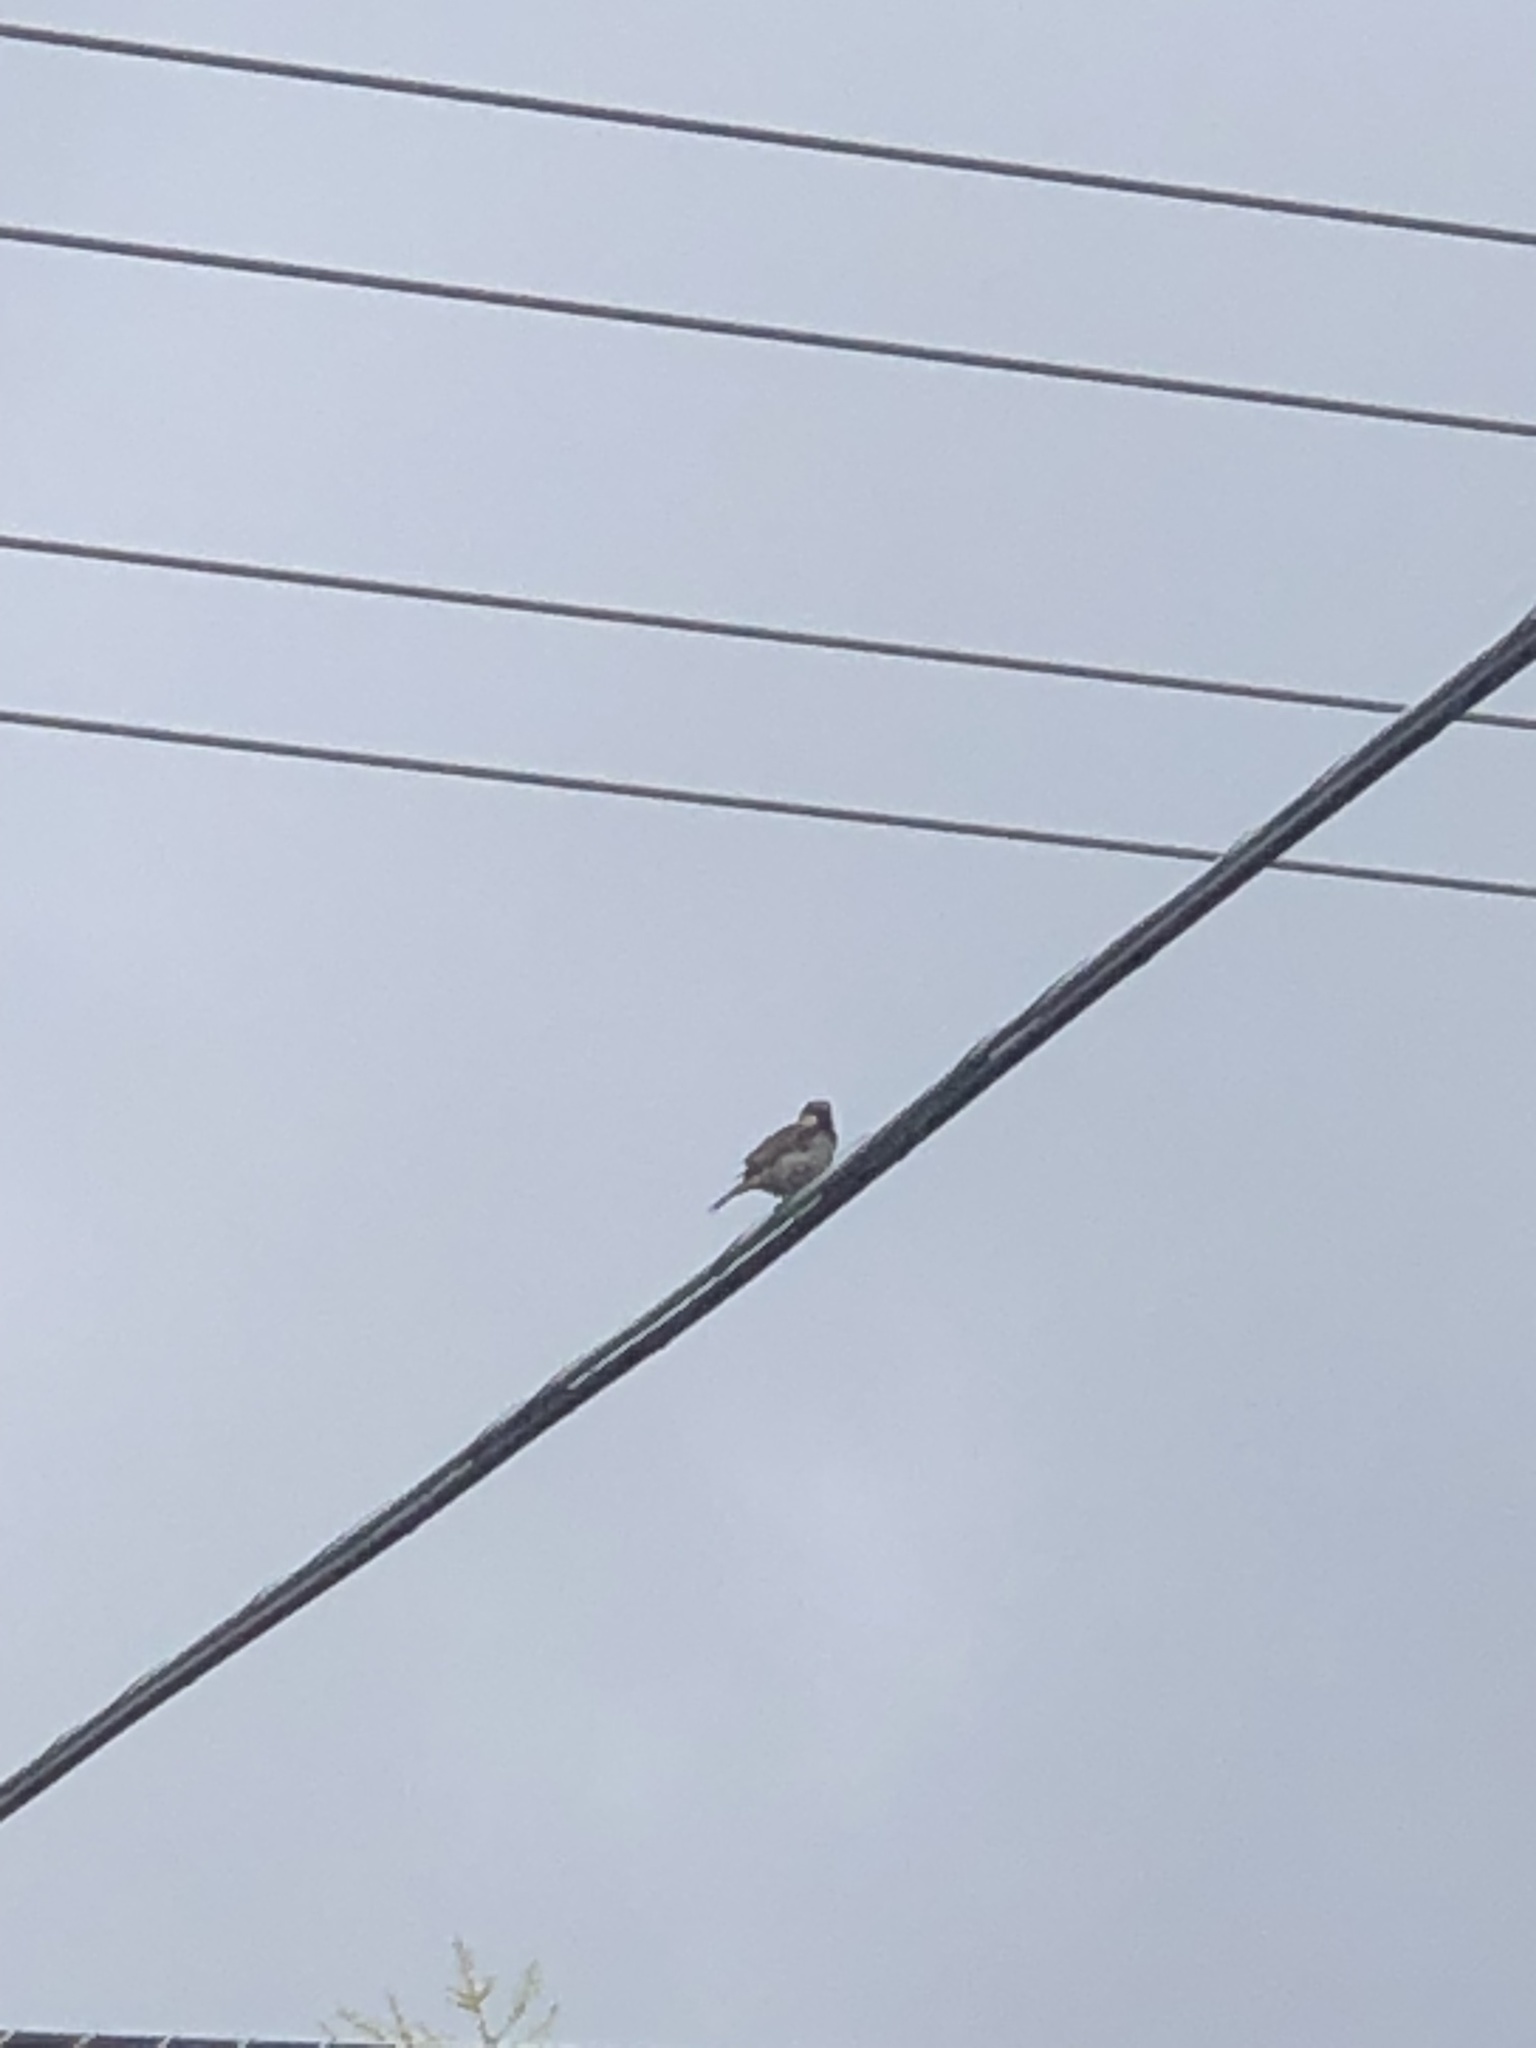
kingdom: Animalia
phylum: Chordata
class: Aves
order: Passeriformes
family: Passeridae
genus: Passer
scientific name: Passer domesticus
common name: House sparrow
